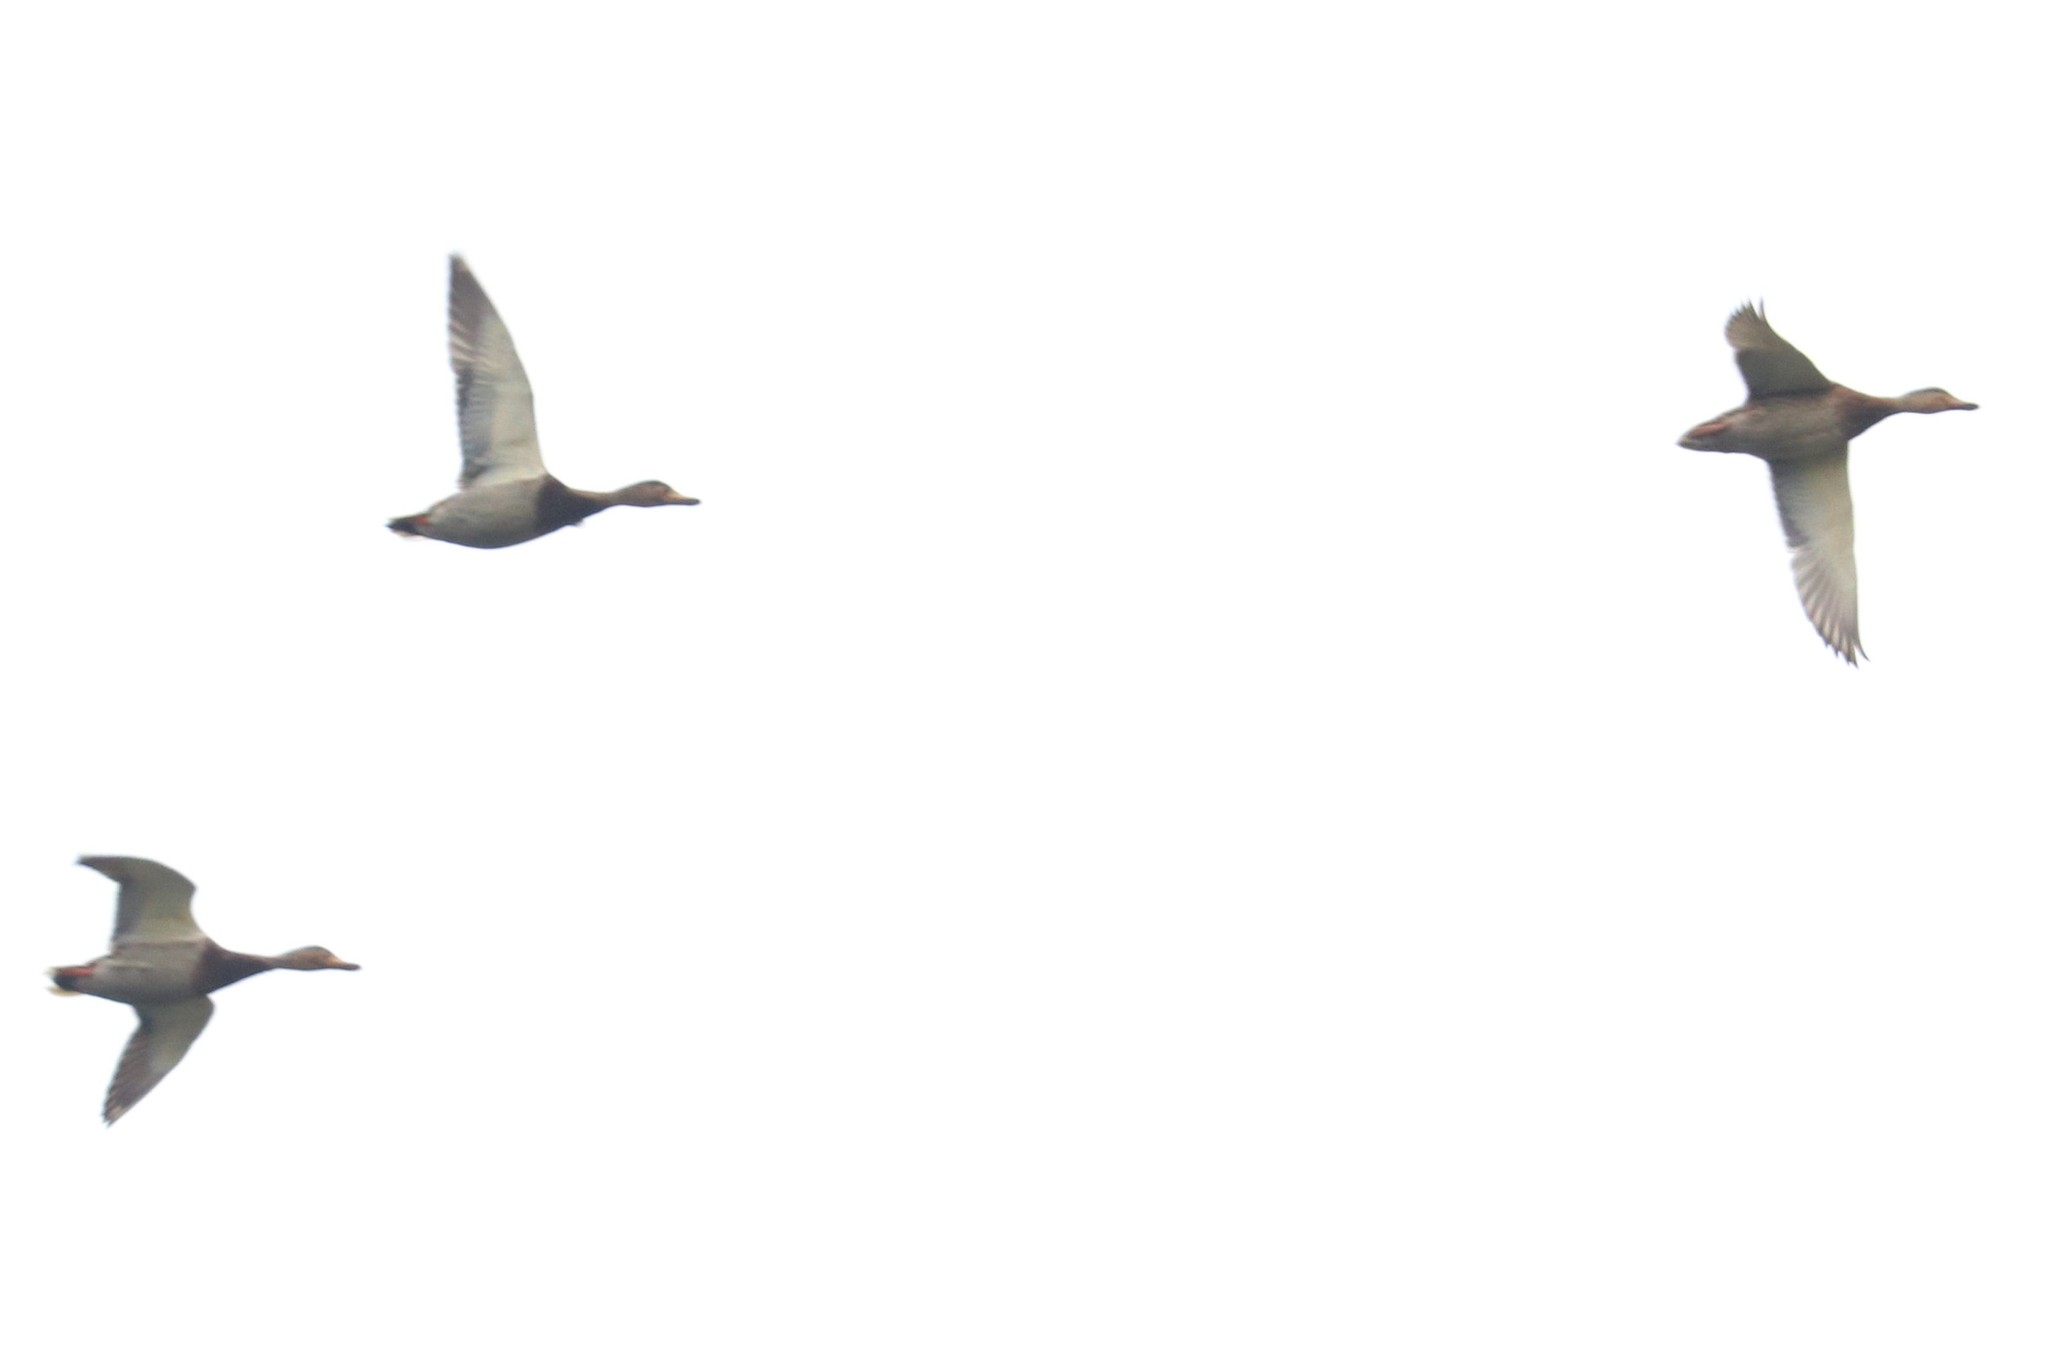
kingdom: Animalia
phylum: Chordata
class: Aves
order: Anseriformes
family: Anatidae
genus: Anas
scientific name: Anas platyrhynchos
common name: Mallard
